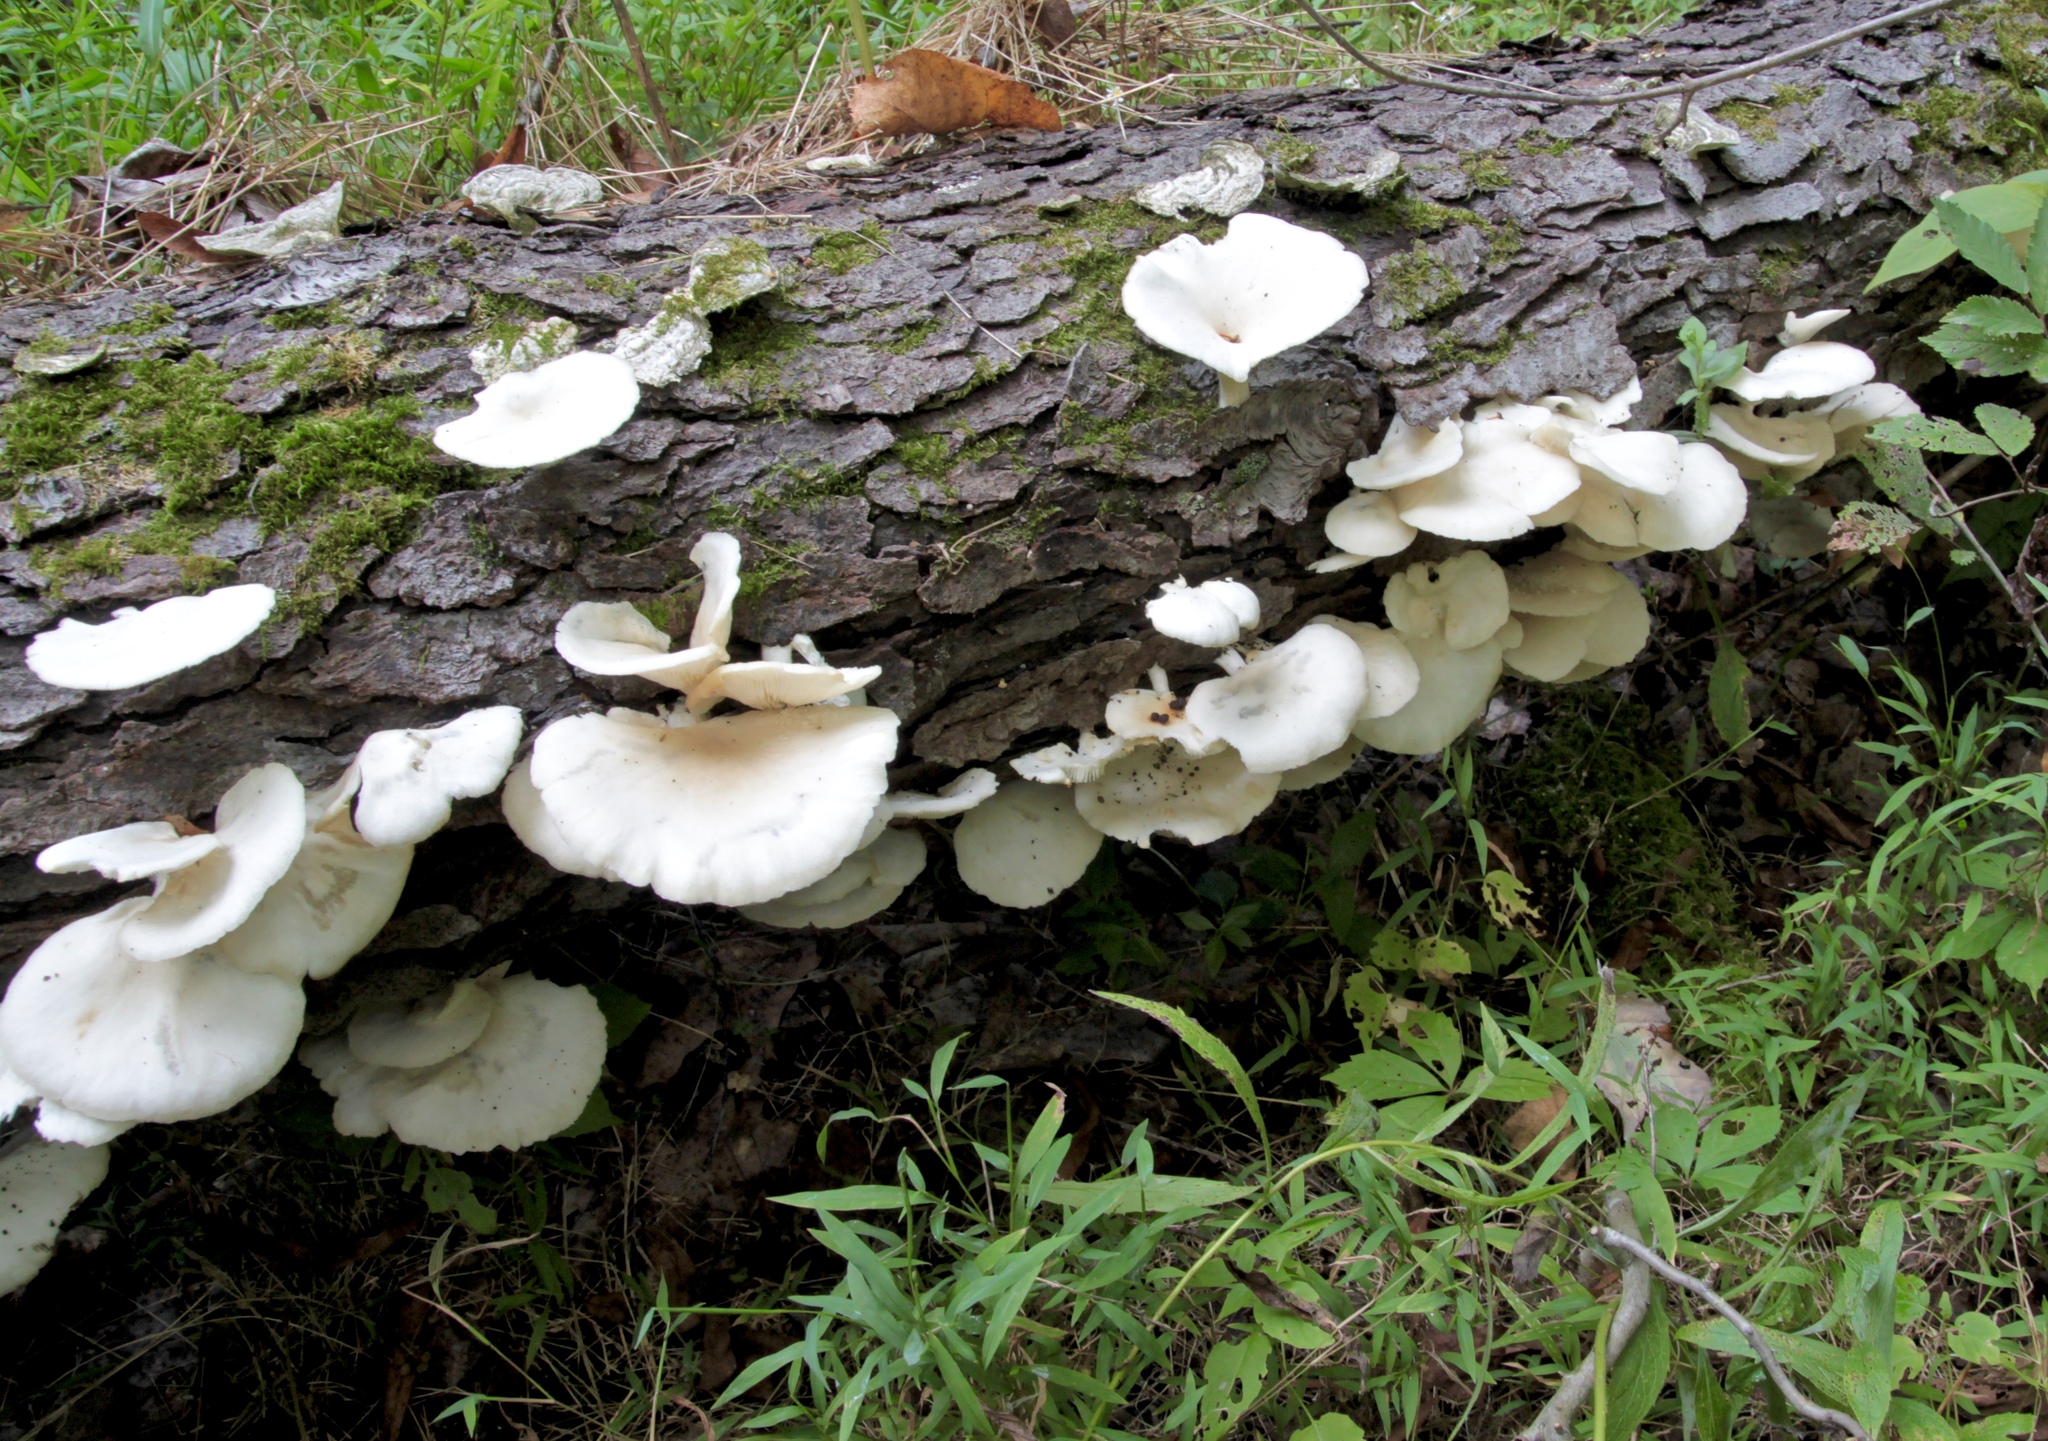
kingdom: Fungi
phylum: Basidiomycota
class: Agaricomycetes
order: Agaricales
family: Pleurotaceae
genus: Pleurotus
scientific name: Pleurotus pulmonarius
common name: Pale oyster
